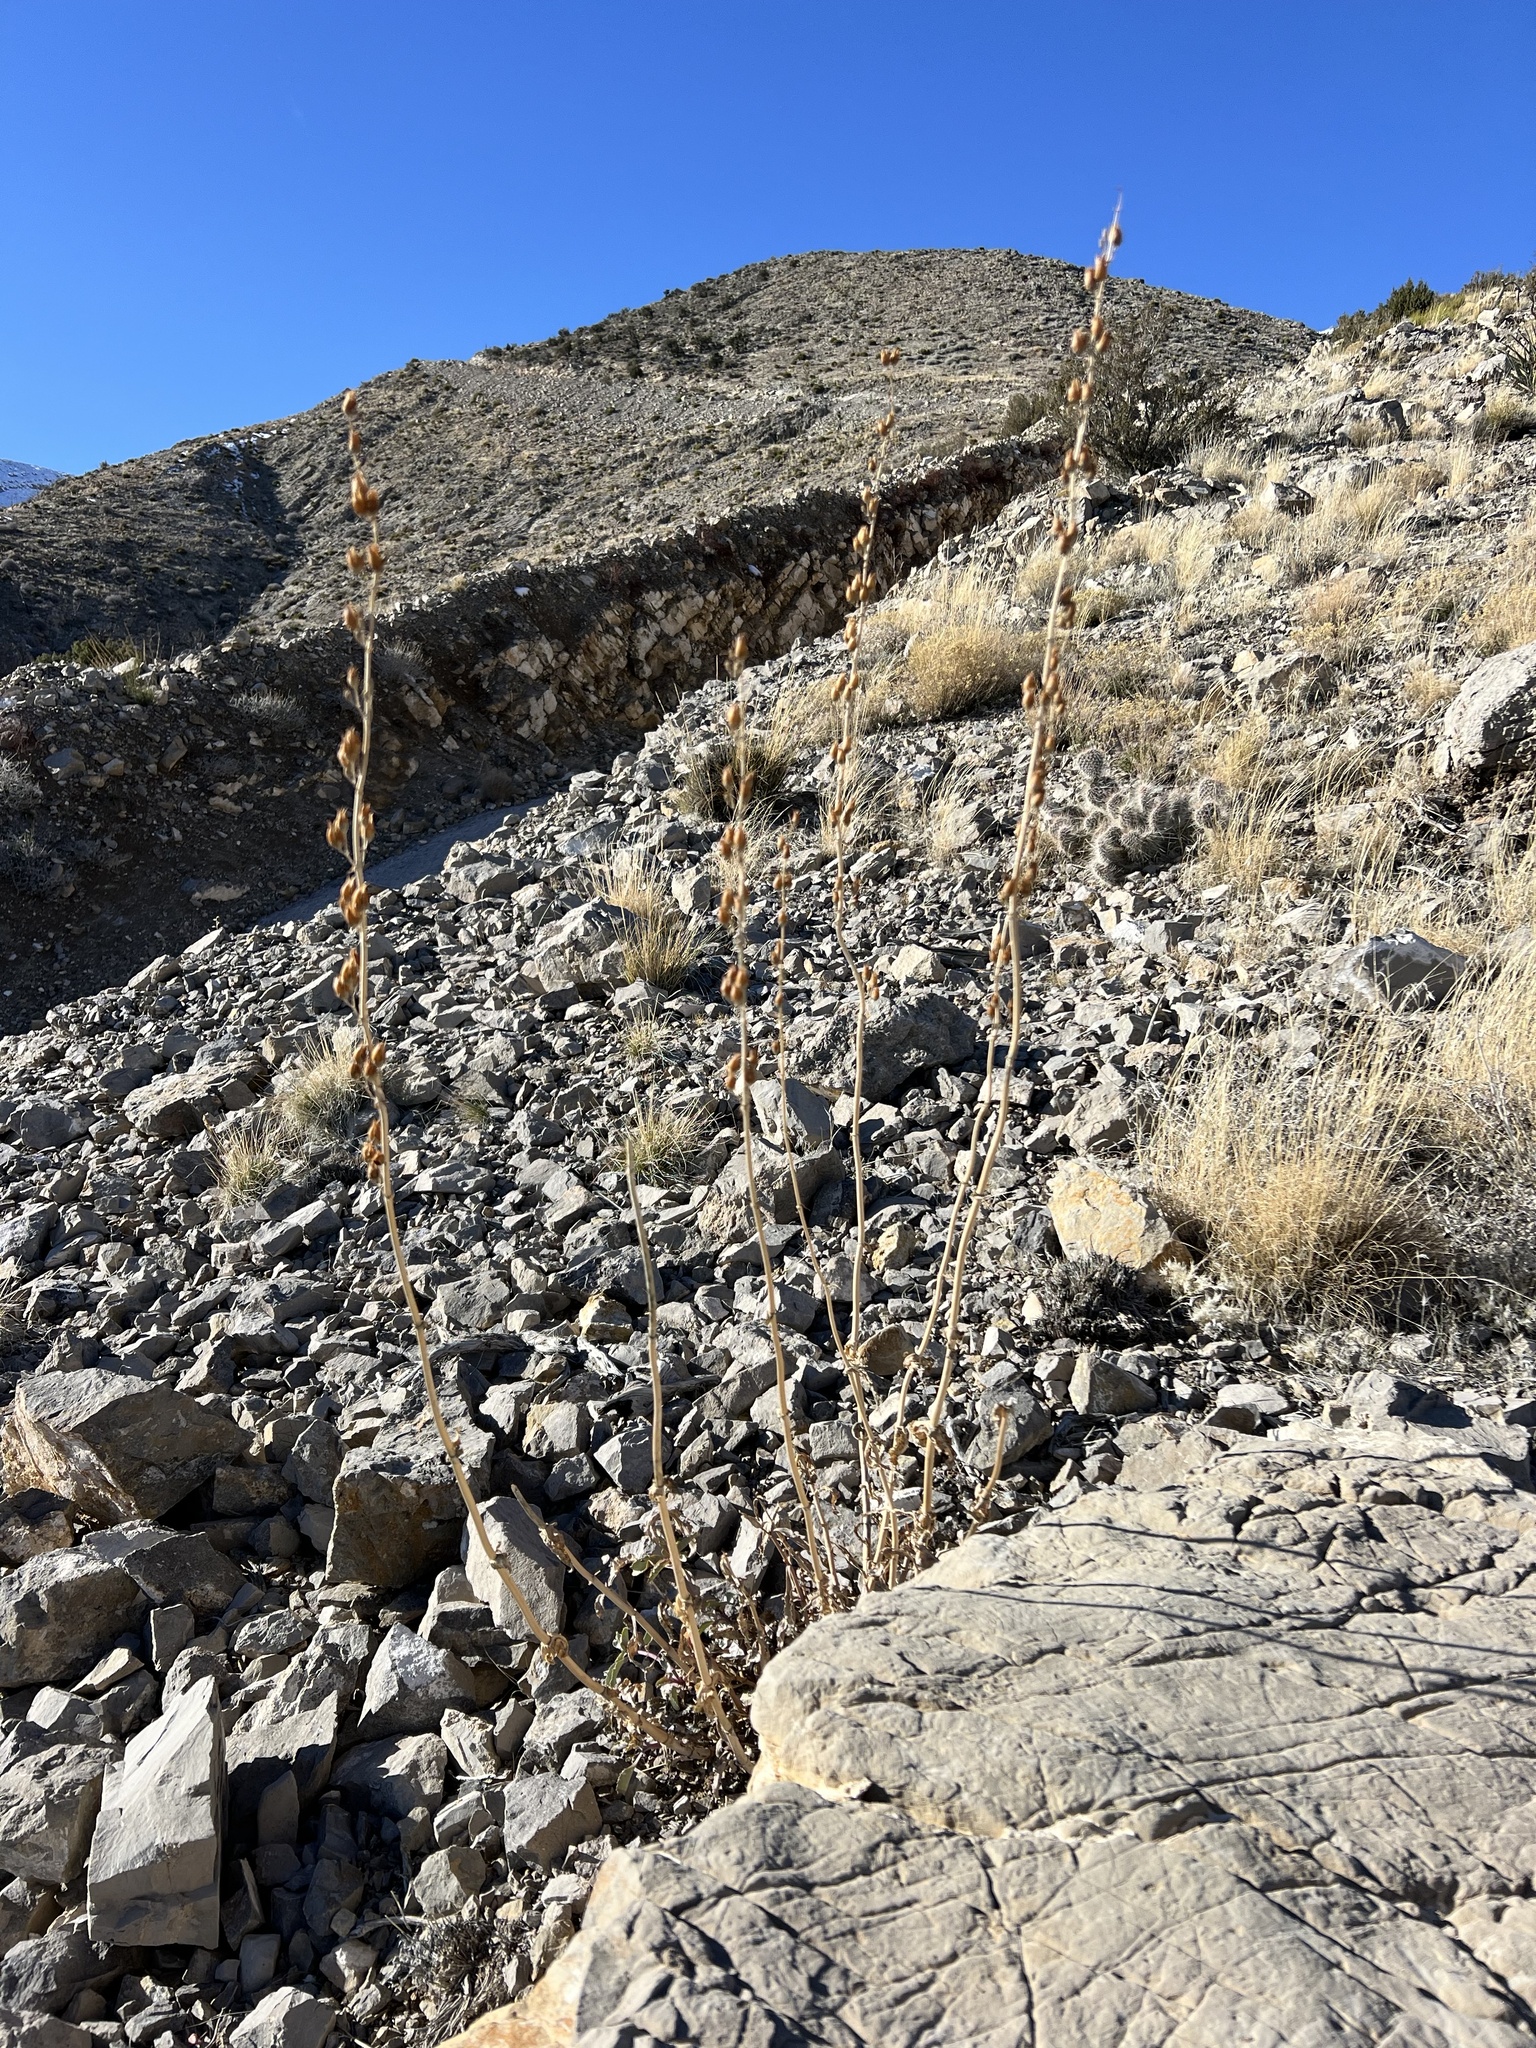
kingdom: Plantae
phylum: Tracheophyta
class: Magnoliopsida
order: Lamiales
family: Plantaginaceae
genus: Penstemon
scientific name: Penstemon palmeri
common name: Palmer penstemon
